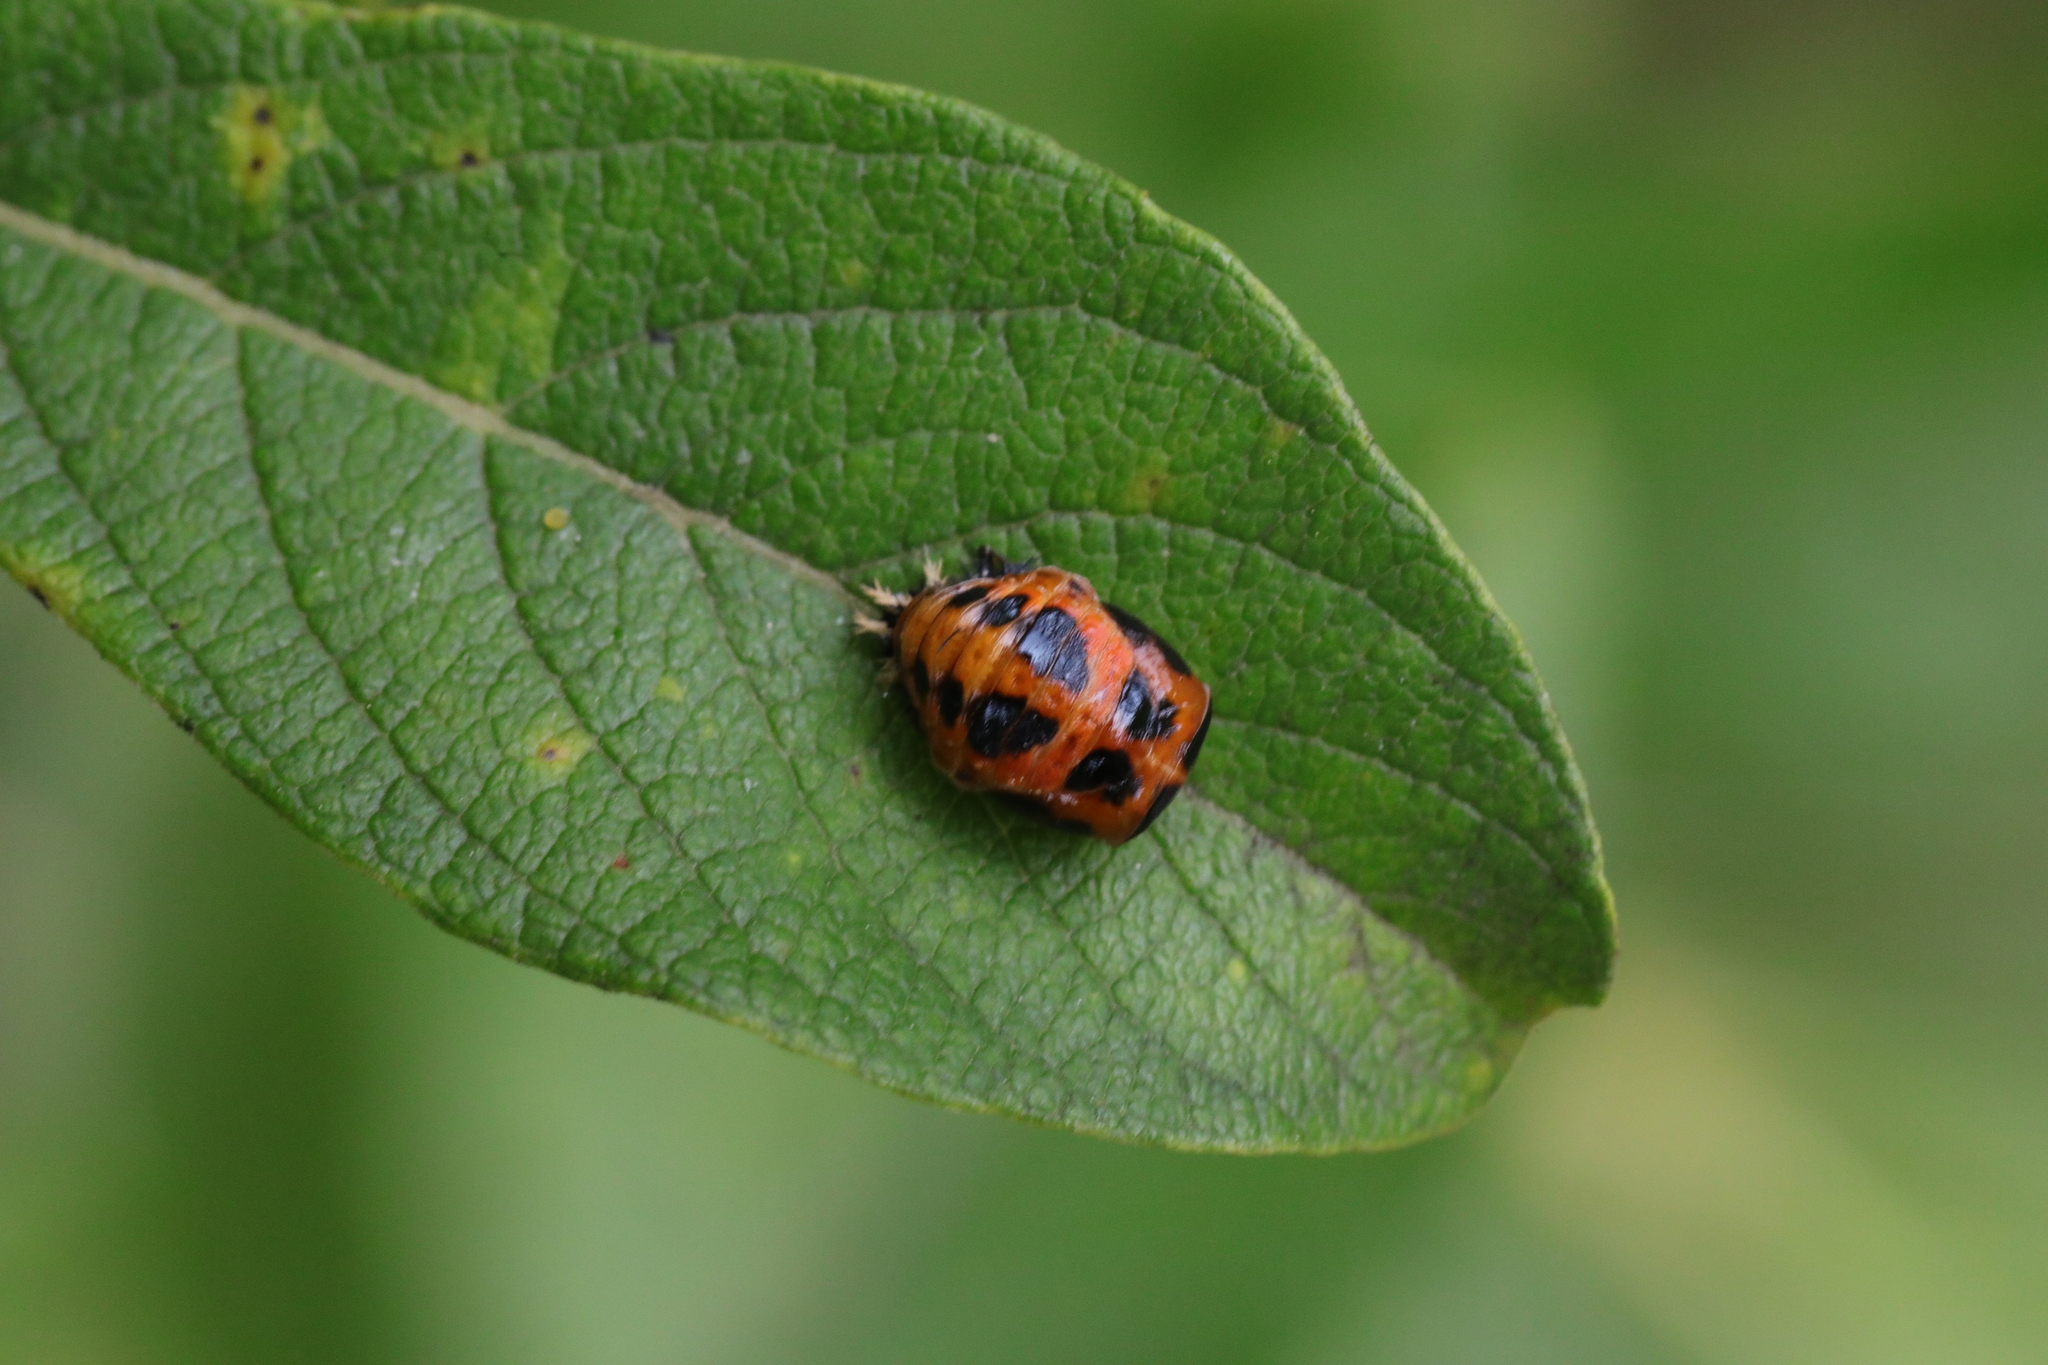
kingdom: Animalia
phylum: Arthropoda
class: Insecta
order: Coleoptera
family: Coccinellidae
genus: Harmonia
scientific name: Harmonia axyridis
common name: Harlequin ladybird
